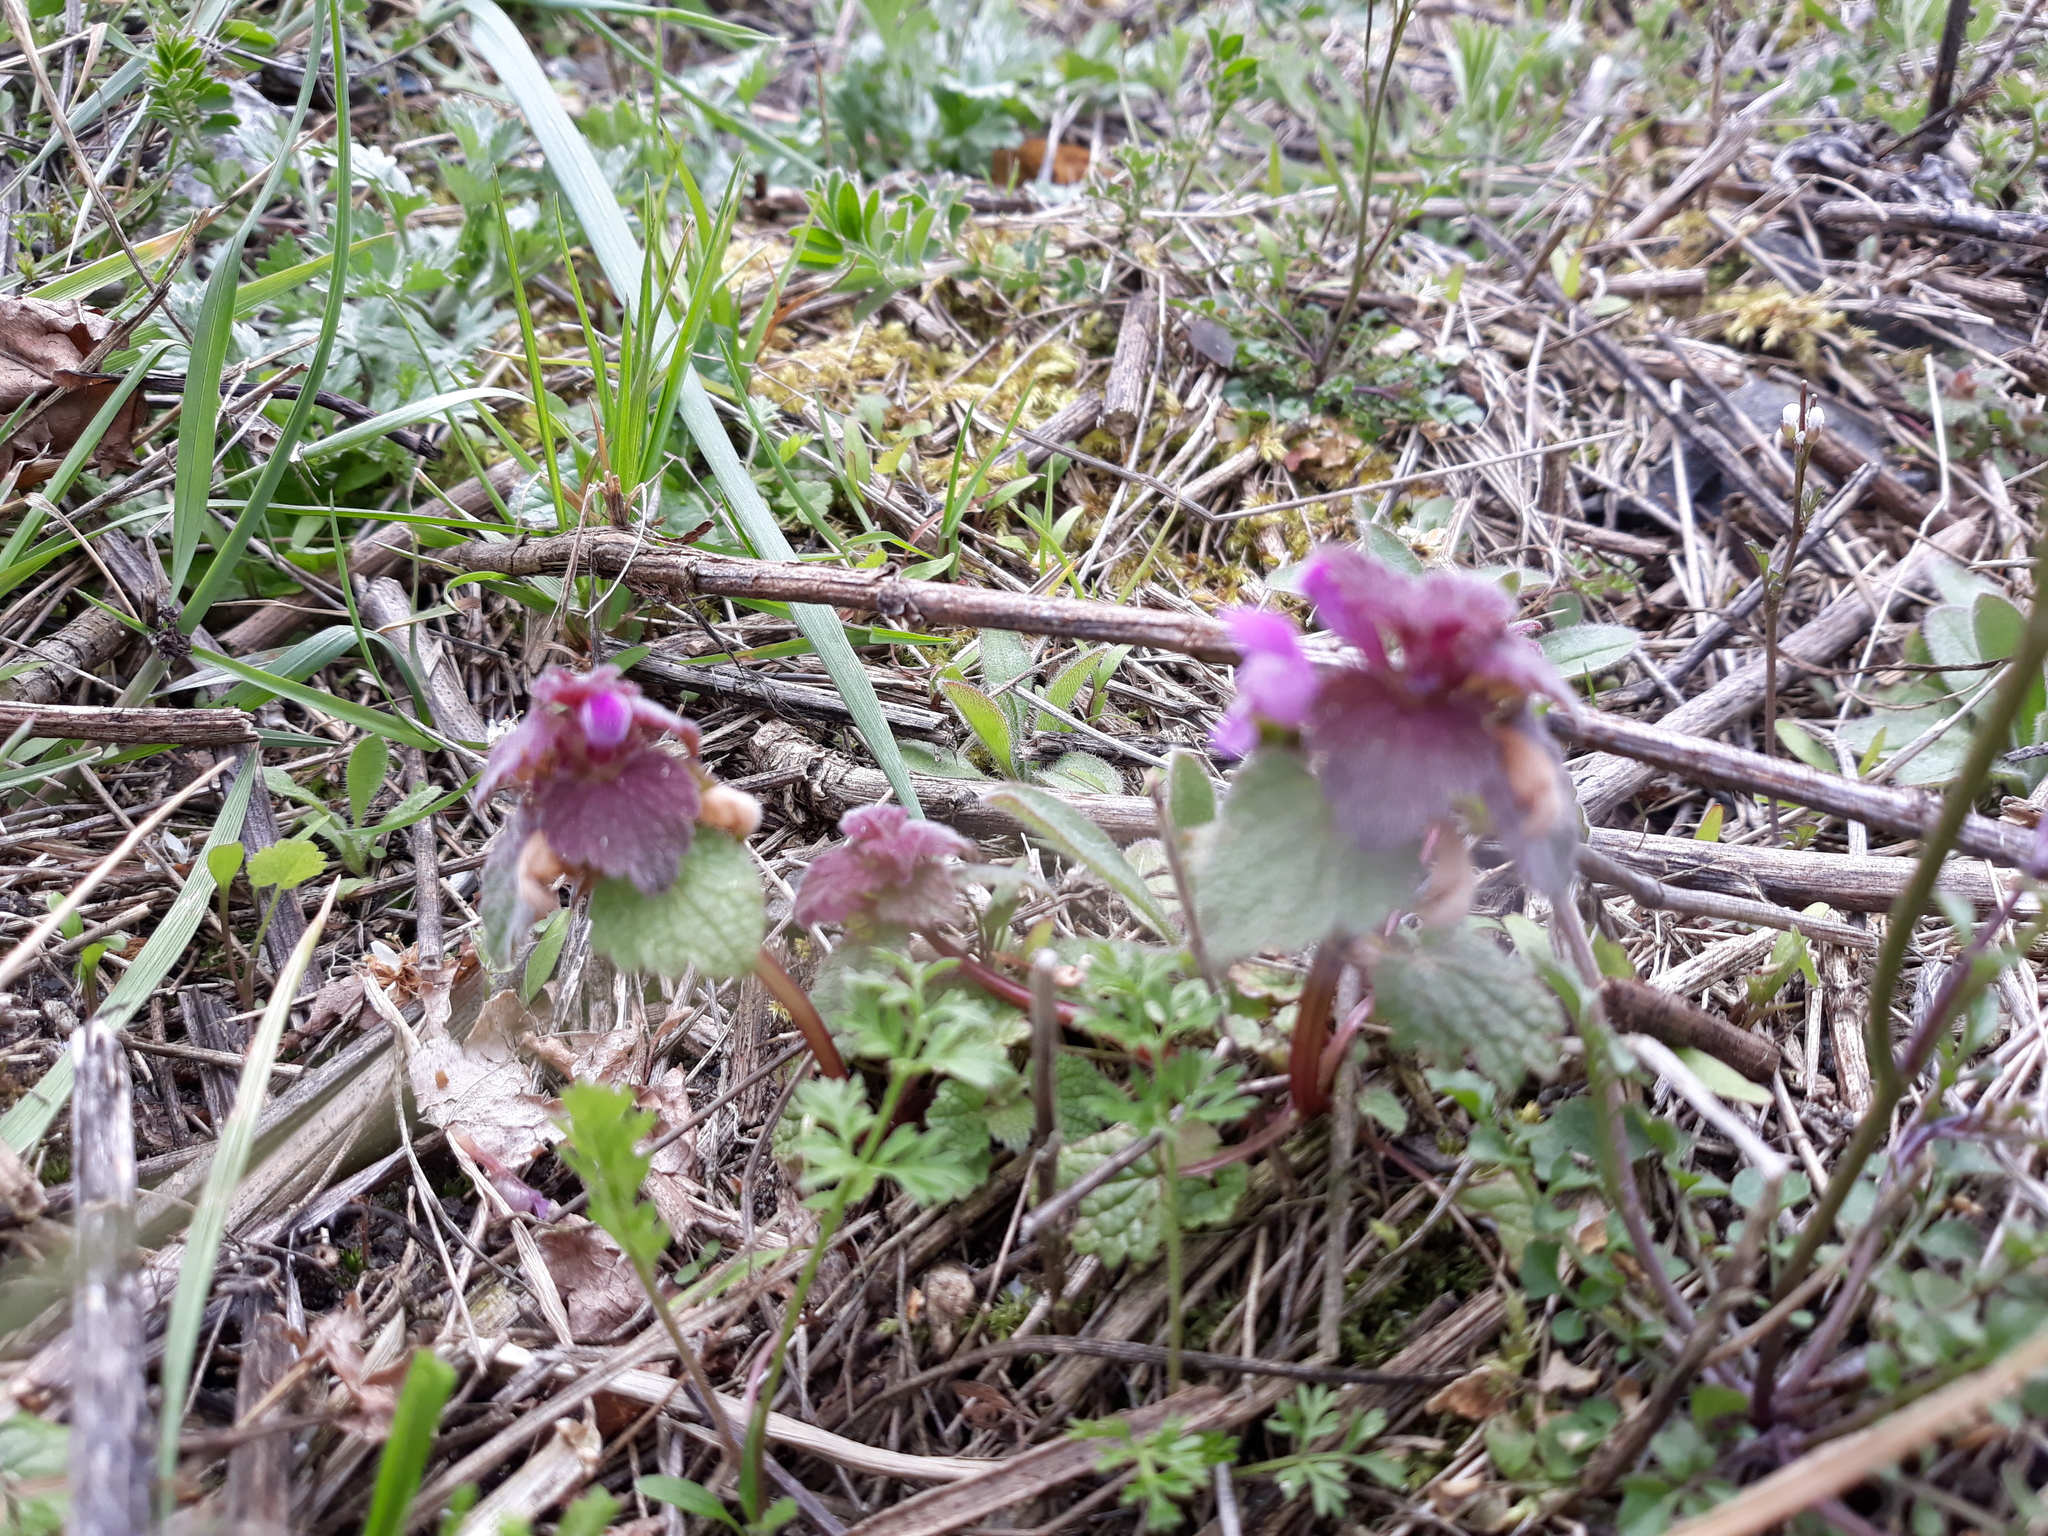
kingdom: Plantae
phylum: Tracheophyta
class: Magnoliopsida
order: Lamiales
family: Lamiaceae
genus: Lamium
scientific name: Lamium purpureum
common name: Red dead-nettle
